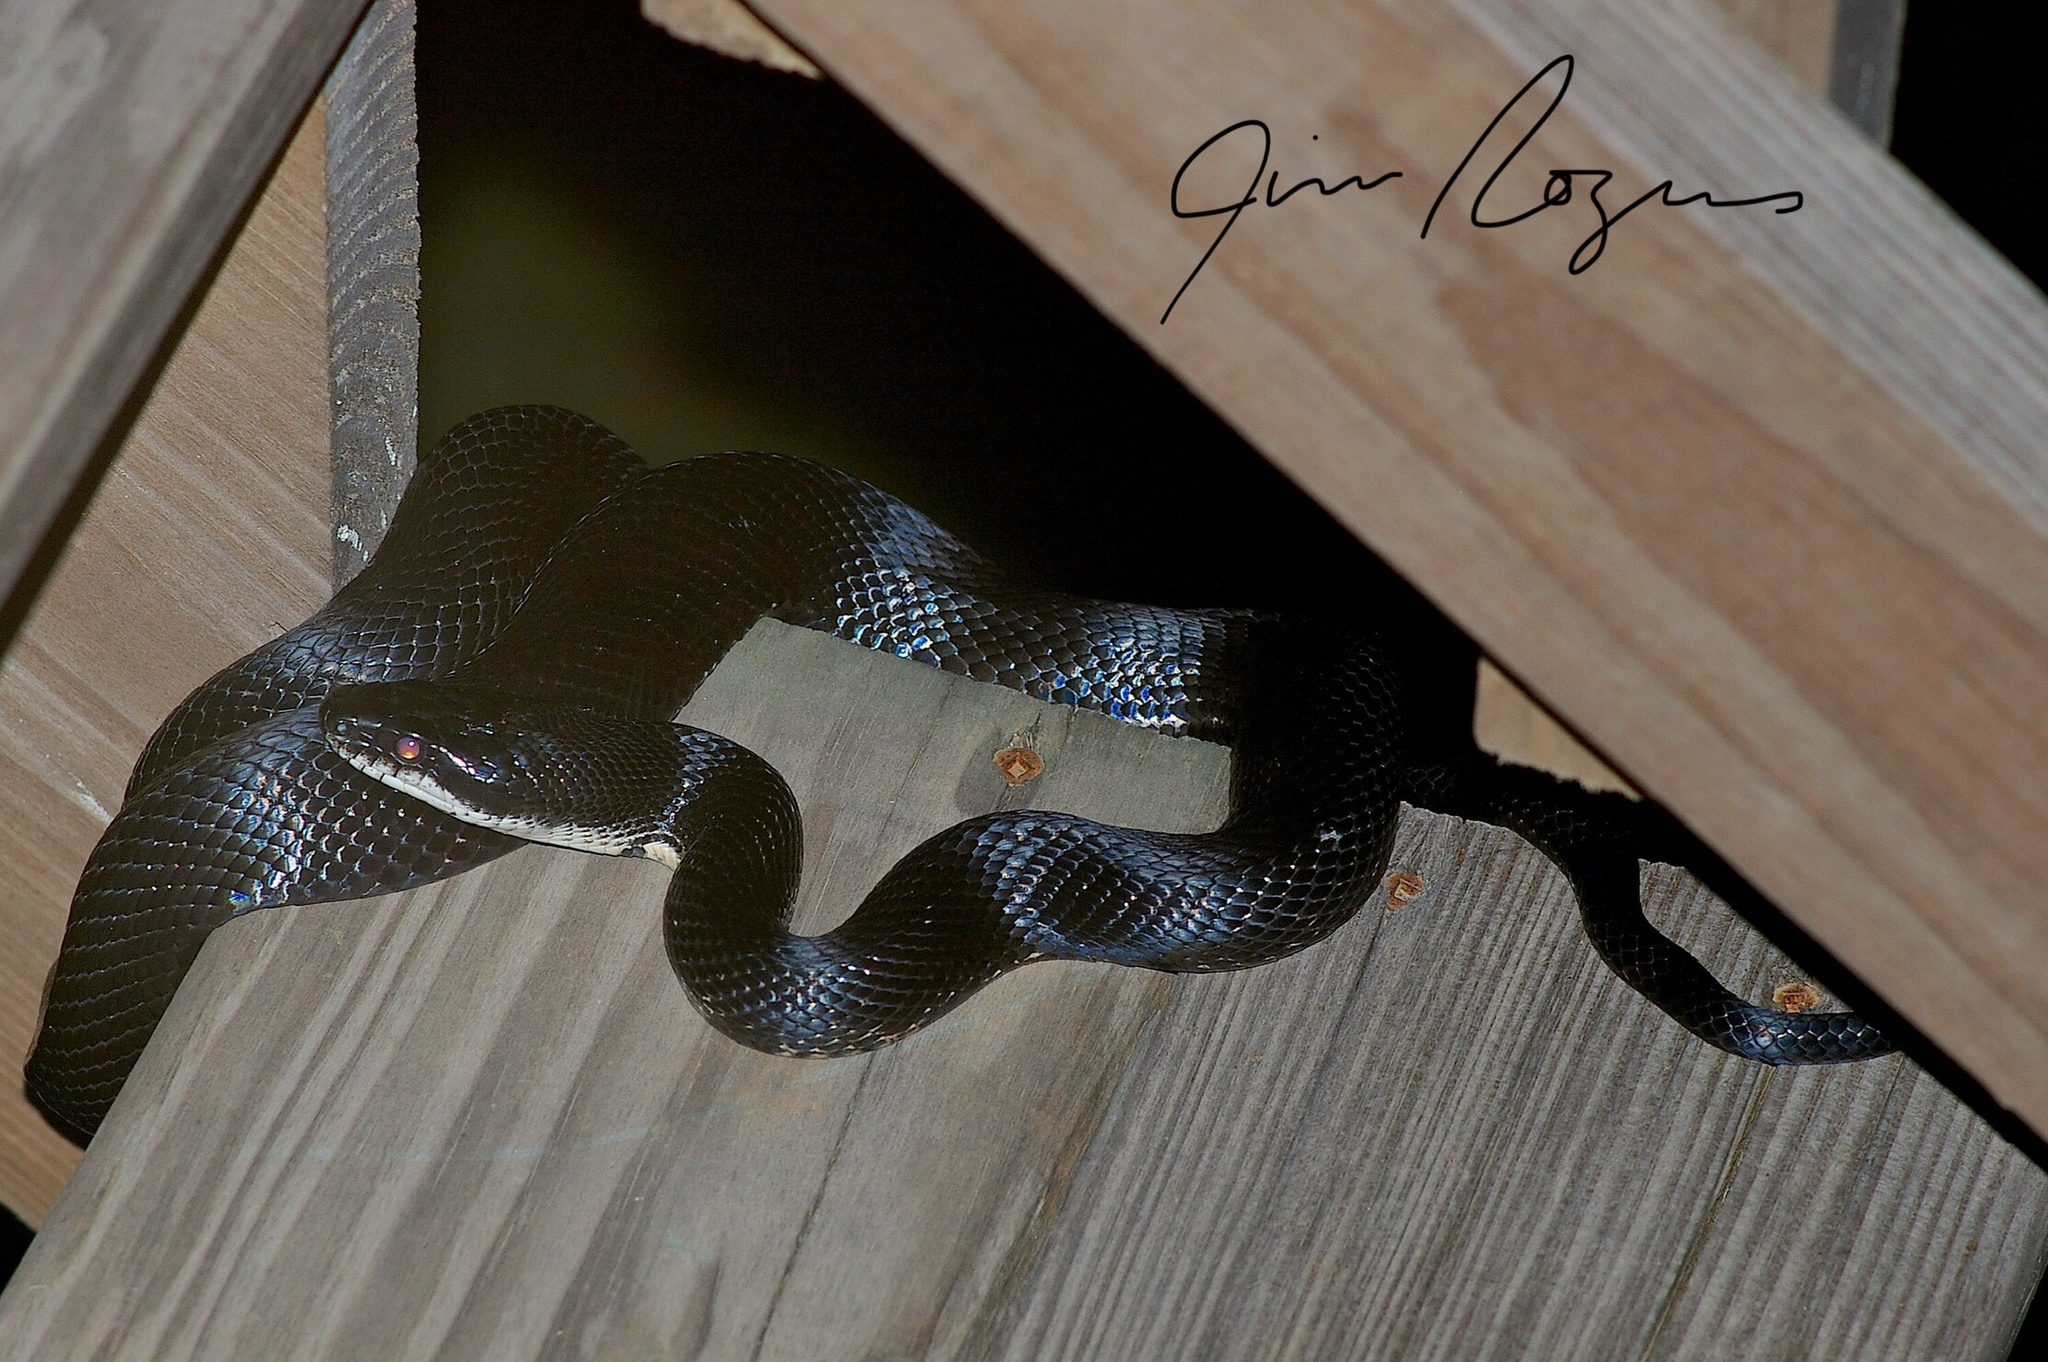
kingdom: Animalia
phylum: Chordata
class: Squamata
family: Colubridae
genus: Pantherophis
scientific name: Pantherophis obsoletus
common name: Black rat snake
